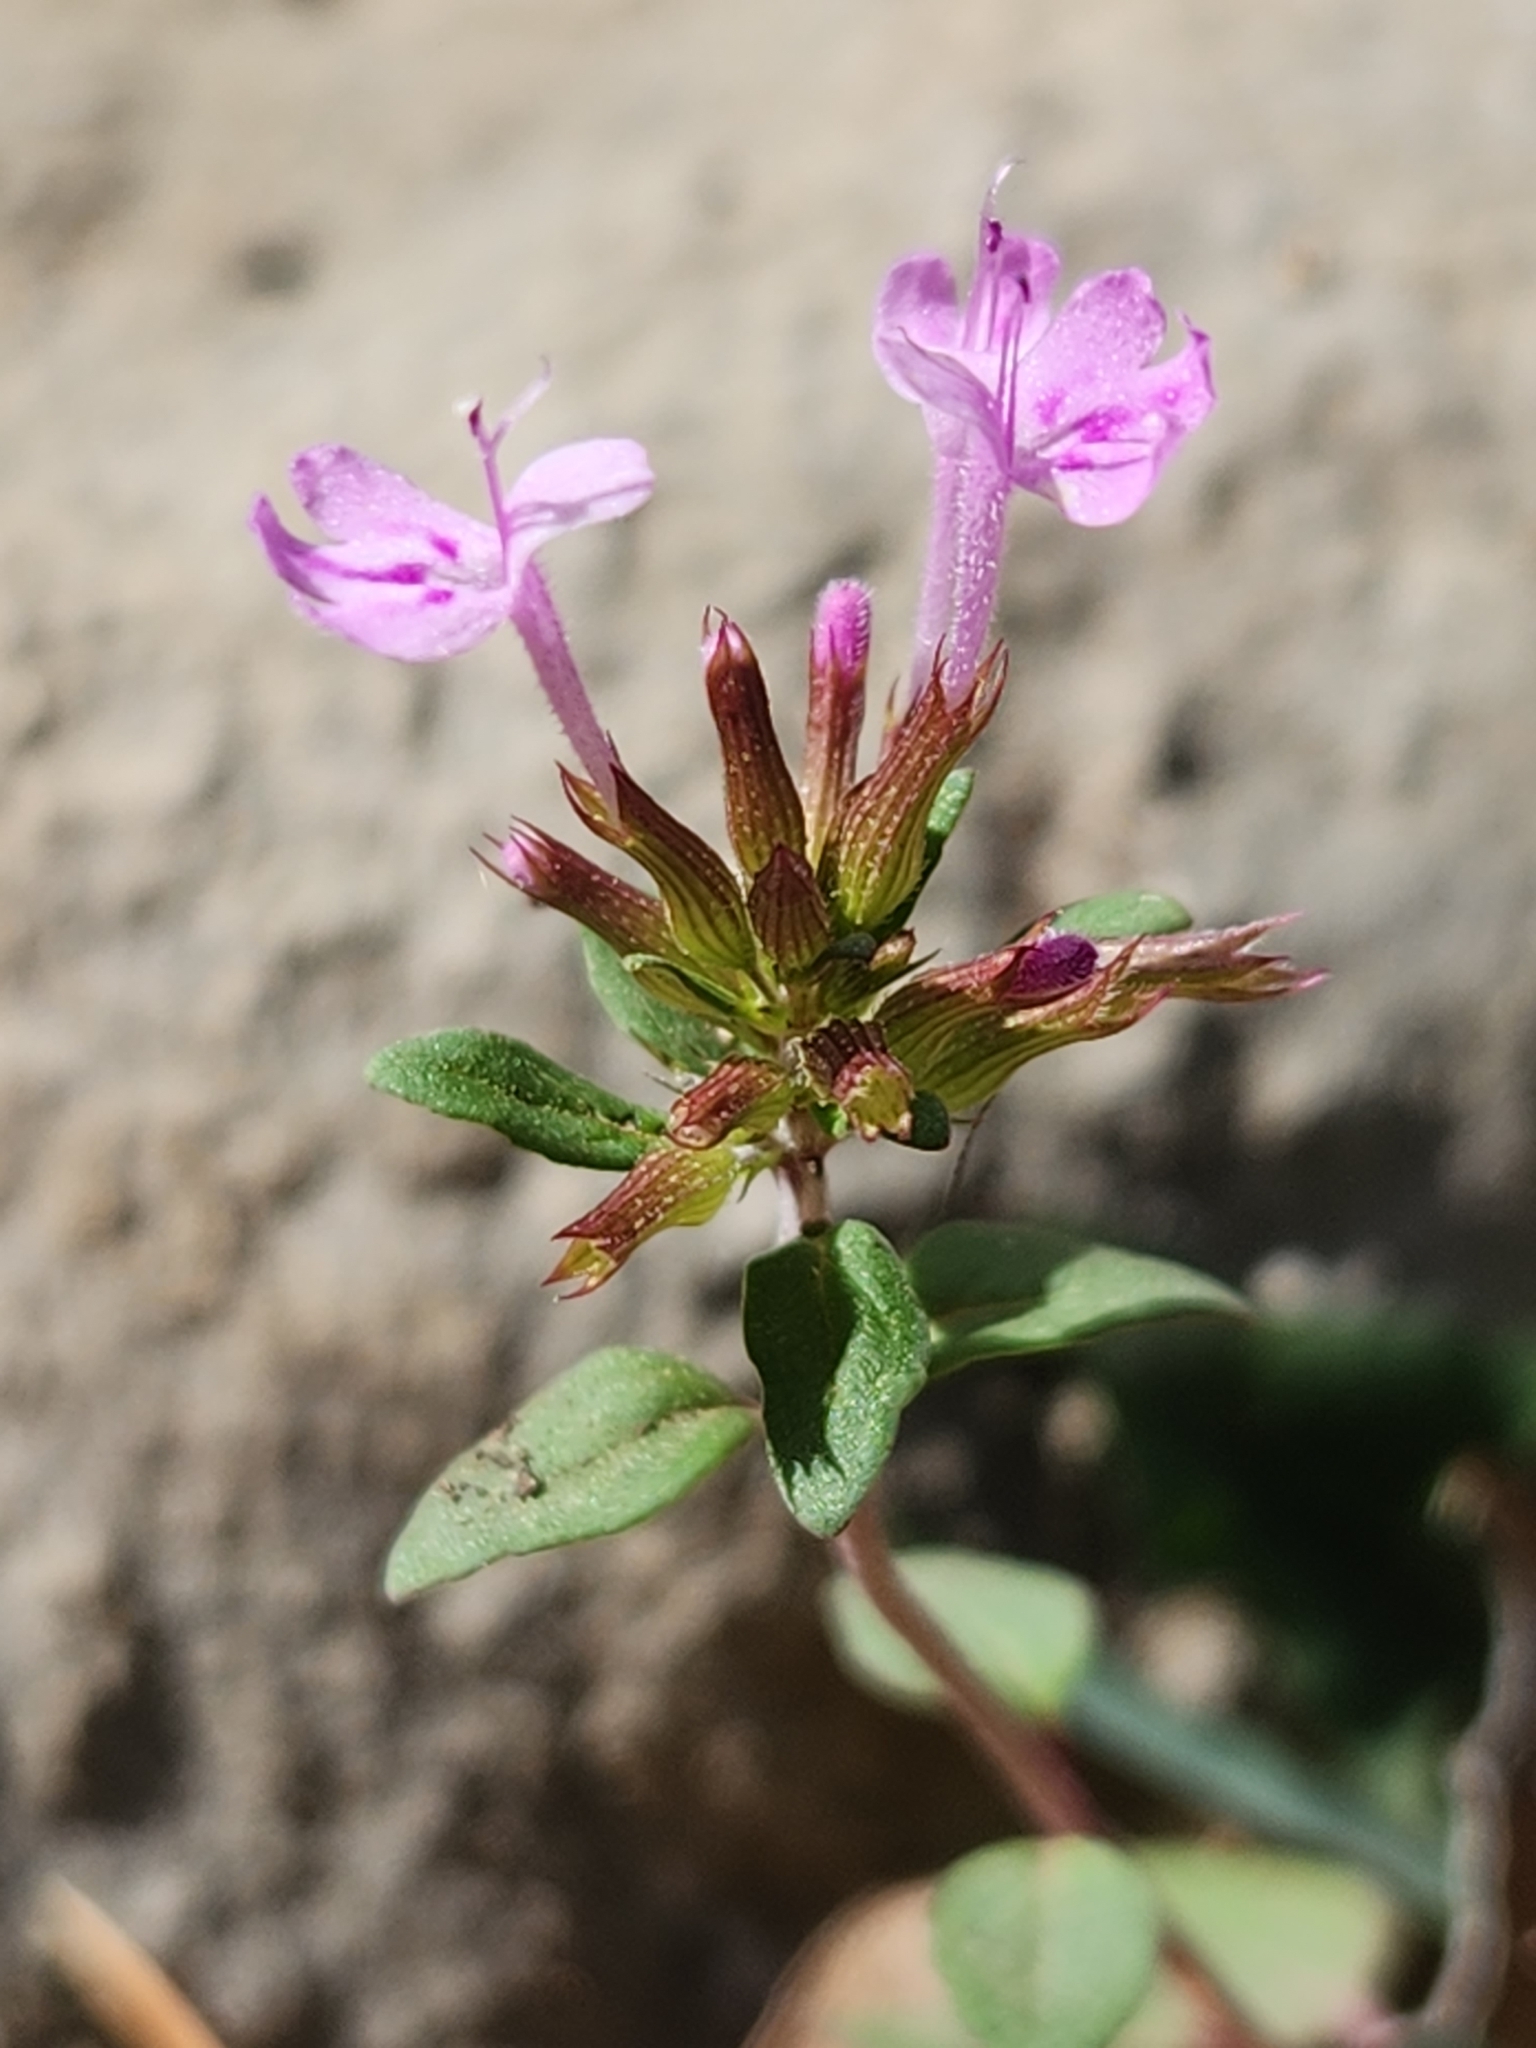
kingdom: Plantae
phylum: Tracheophyta
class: Magnoliopsida
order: Lamiales
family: Lamiaceae
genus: Hedeoma
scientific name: Hedeoma acinoides
